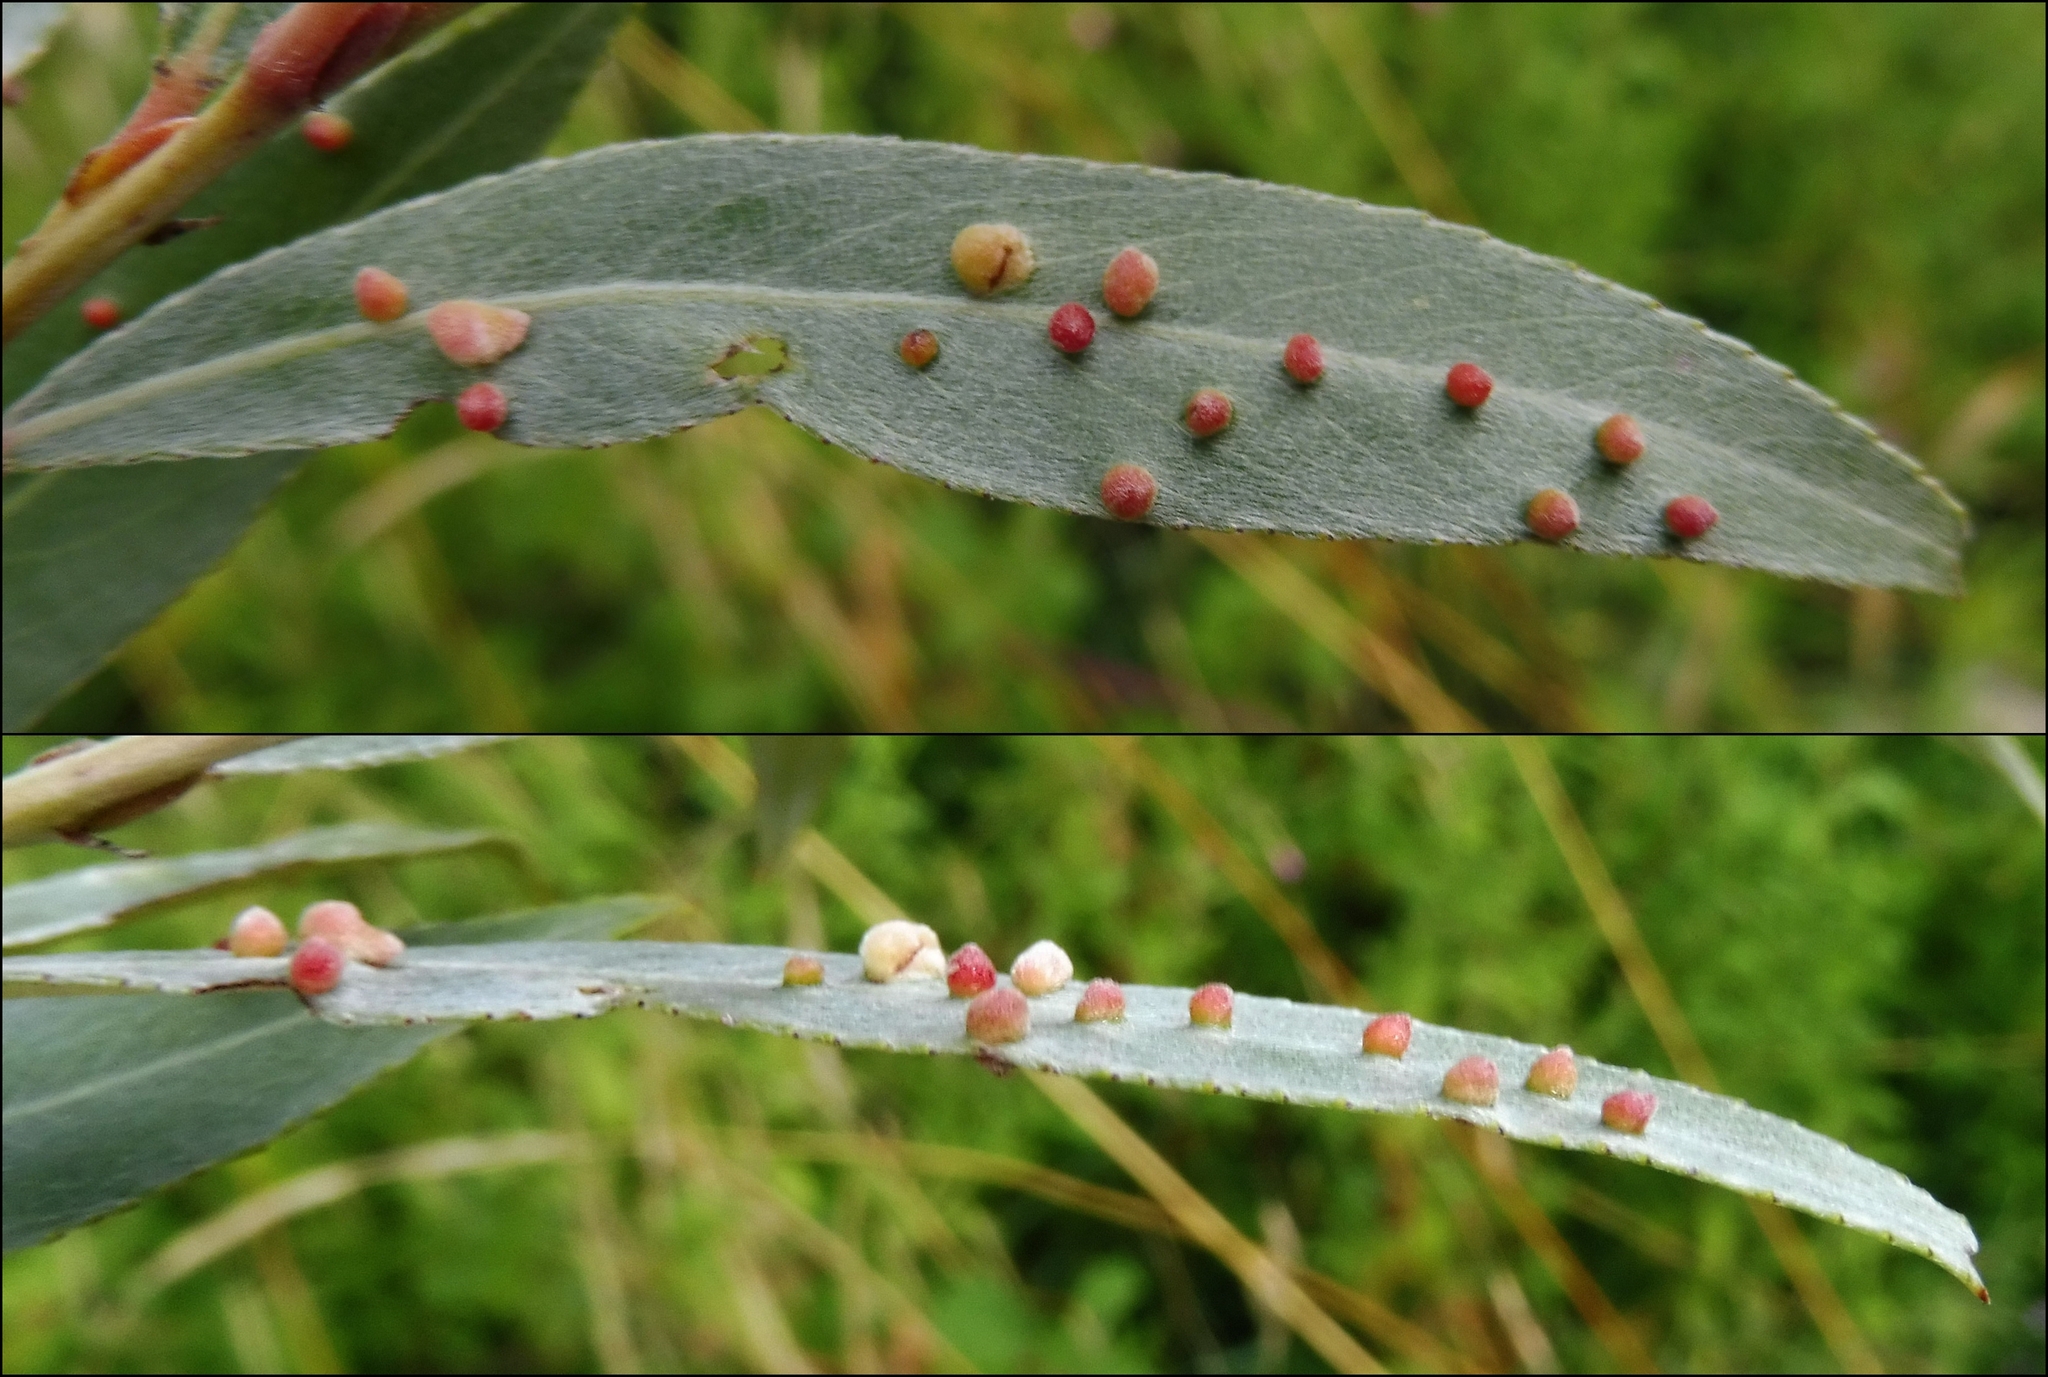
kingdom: Animalia
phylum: Arthropoda
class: Arachnida
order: Trombidiformes
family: Eriophyidae
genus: Aculus
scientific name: Aculus tetanothrix
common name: Willow bead gall mite
